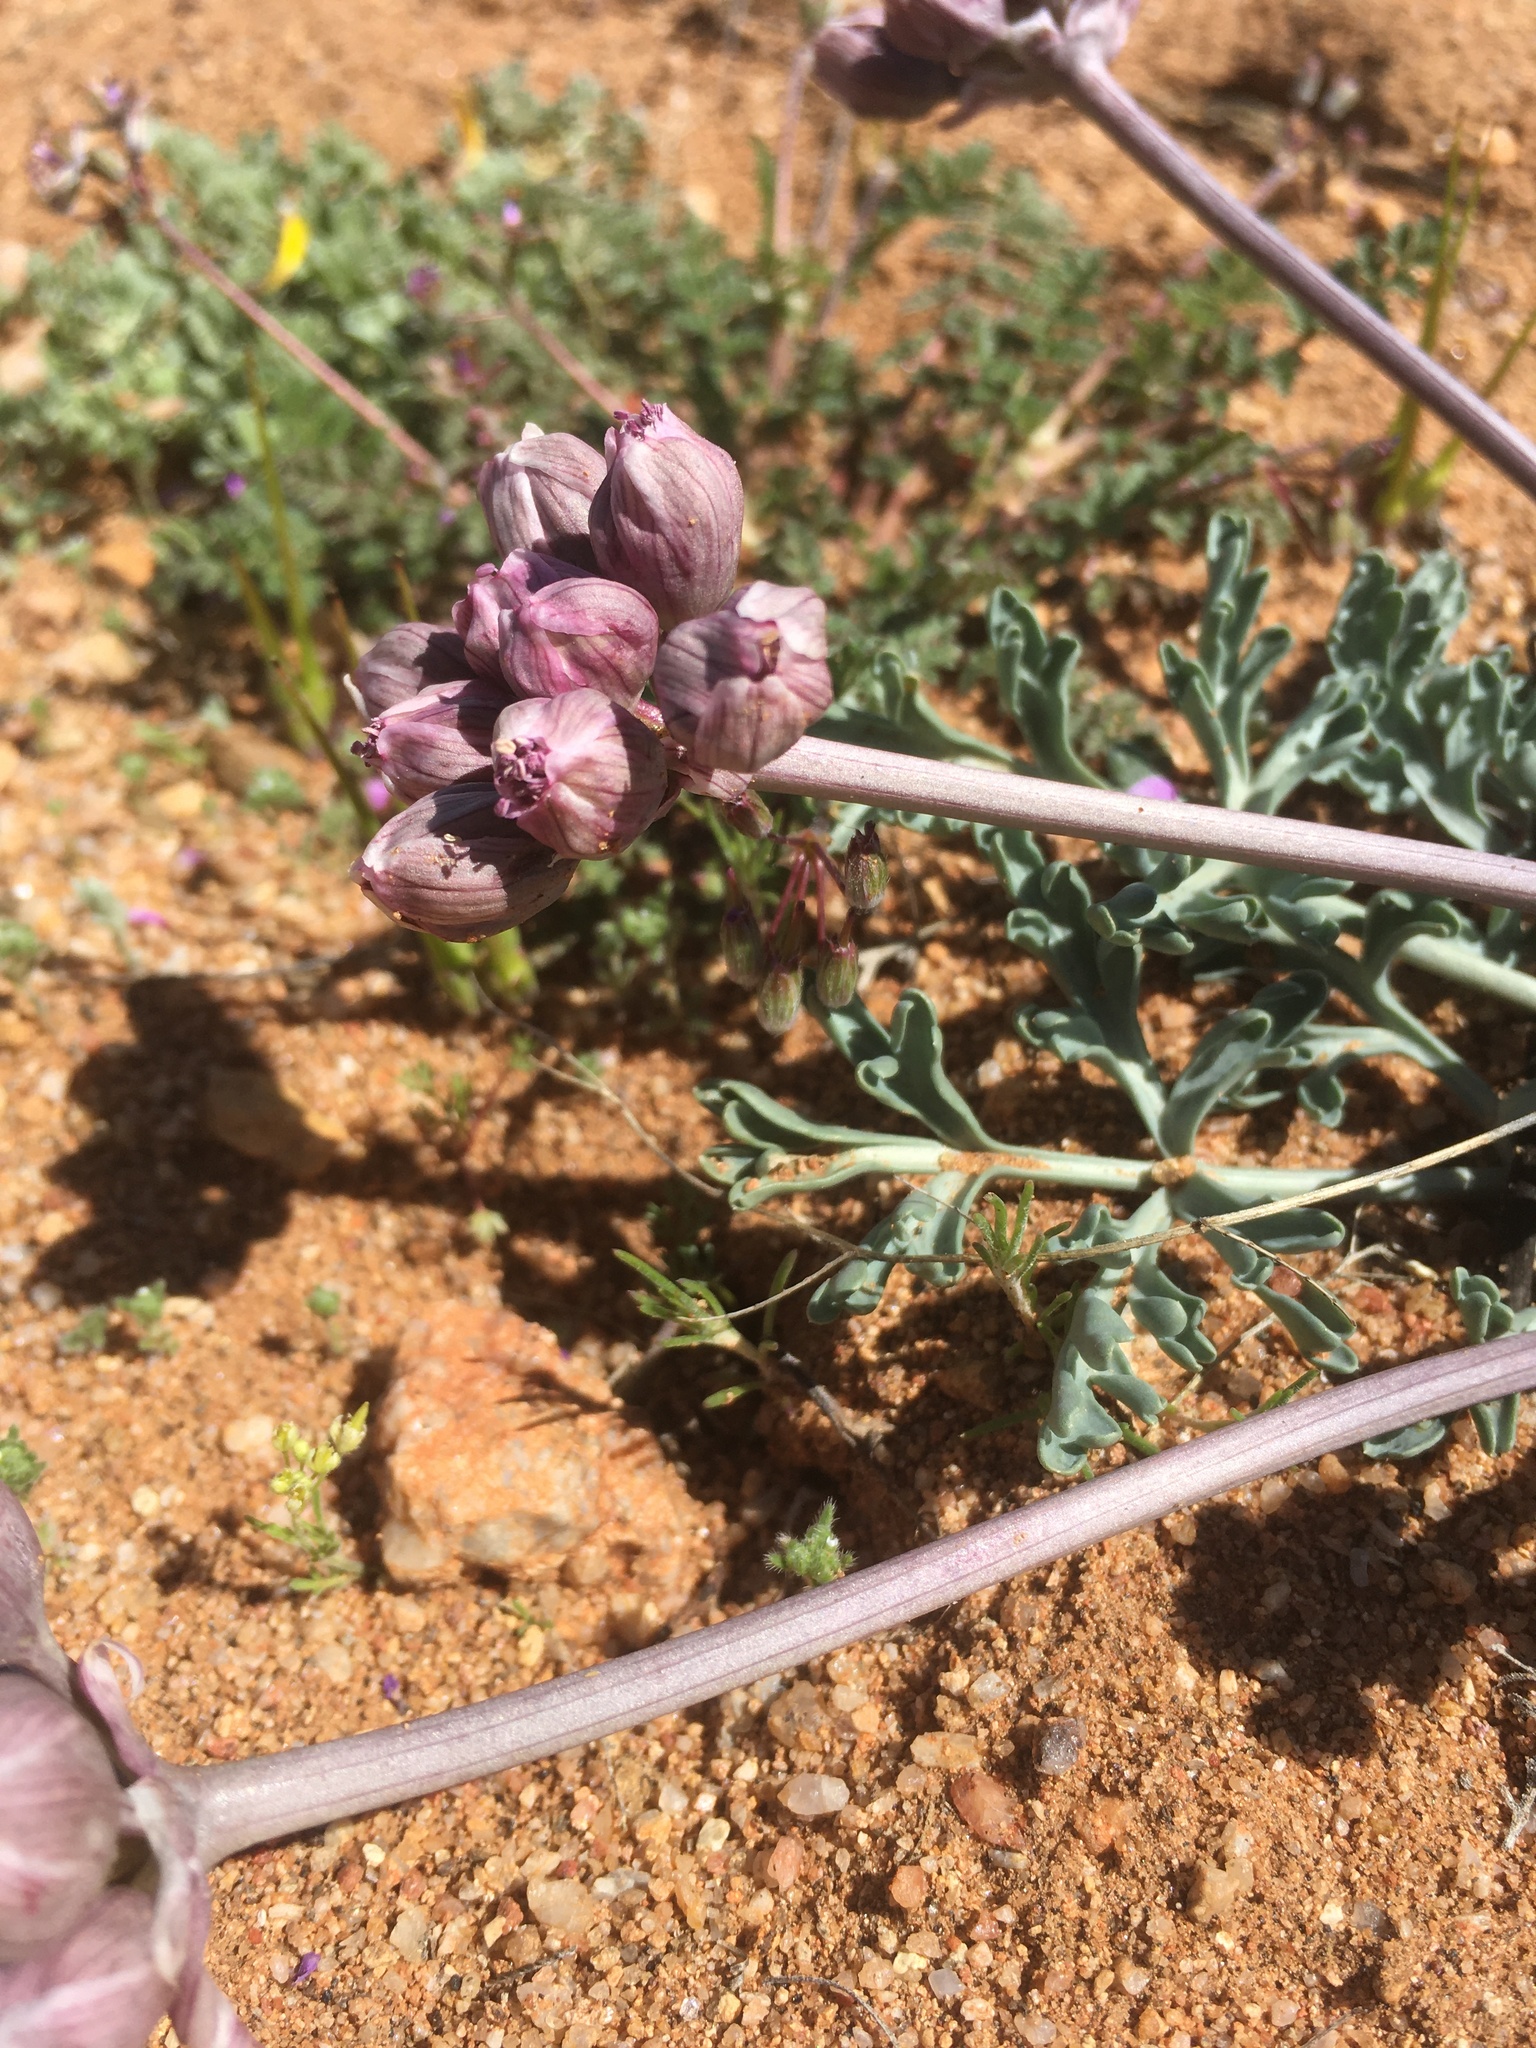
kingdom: Plantae
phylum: Tracheophyta
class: Magnoliopsida
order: Apiales
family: Apiaceae
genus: Vesper
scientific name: Vesper multinervatus
